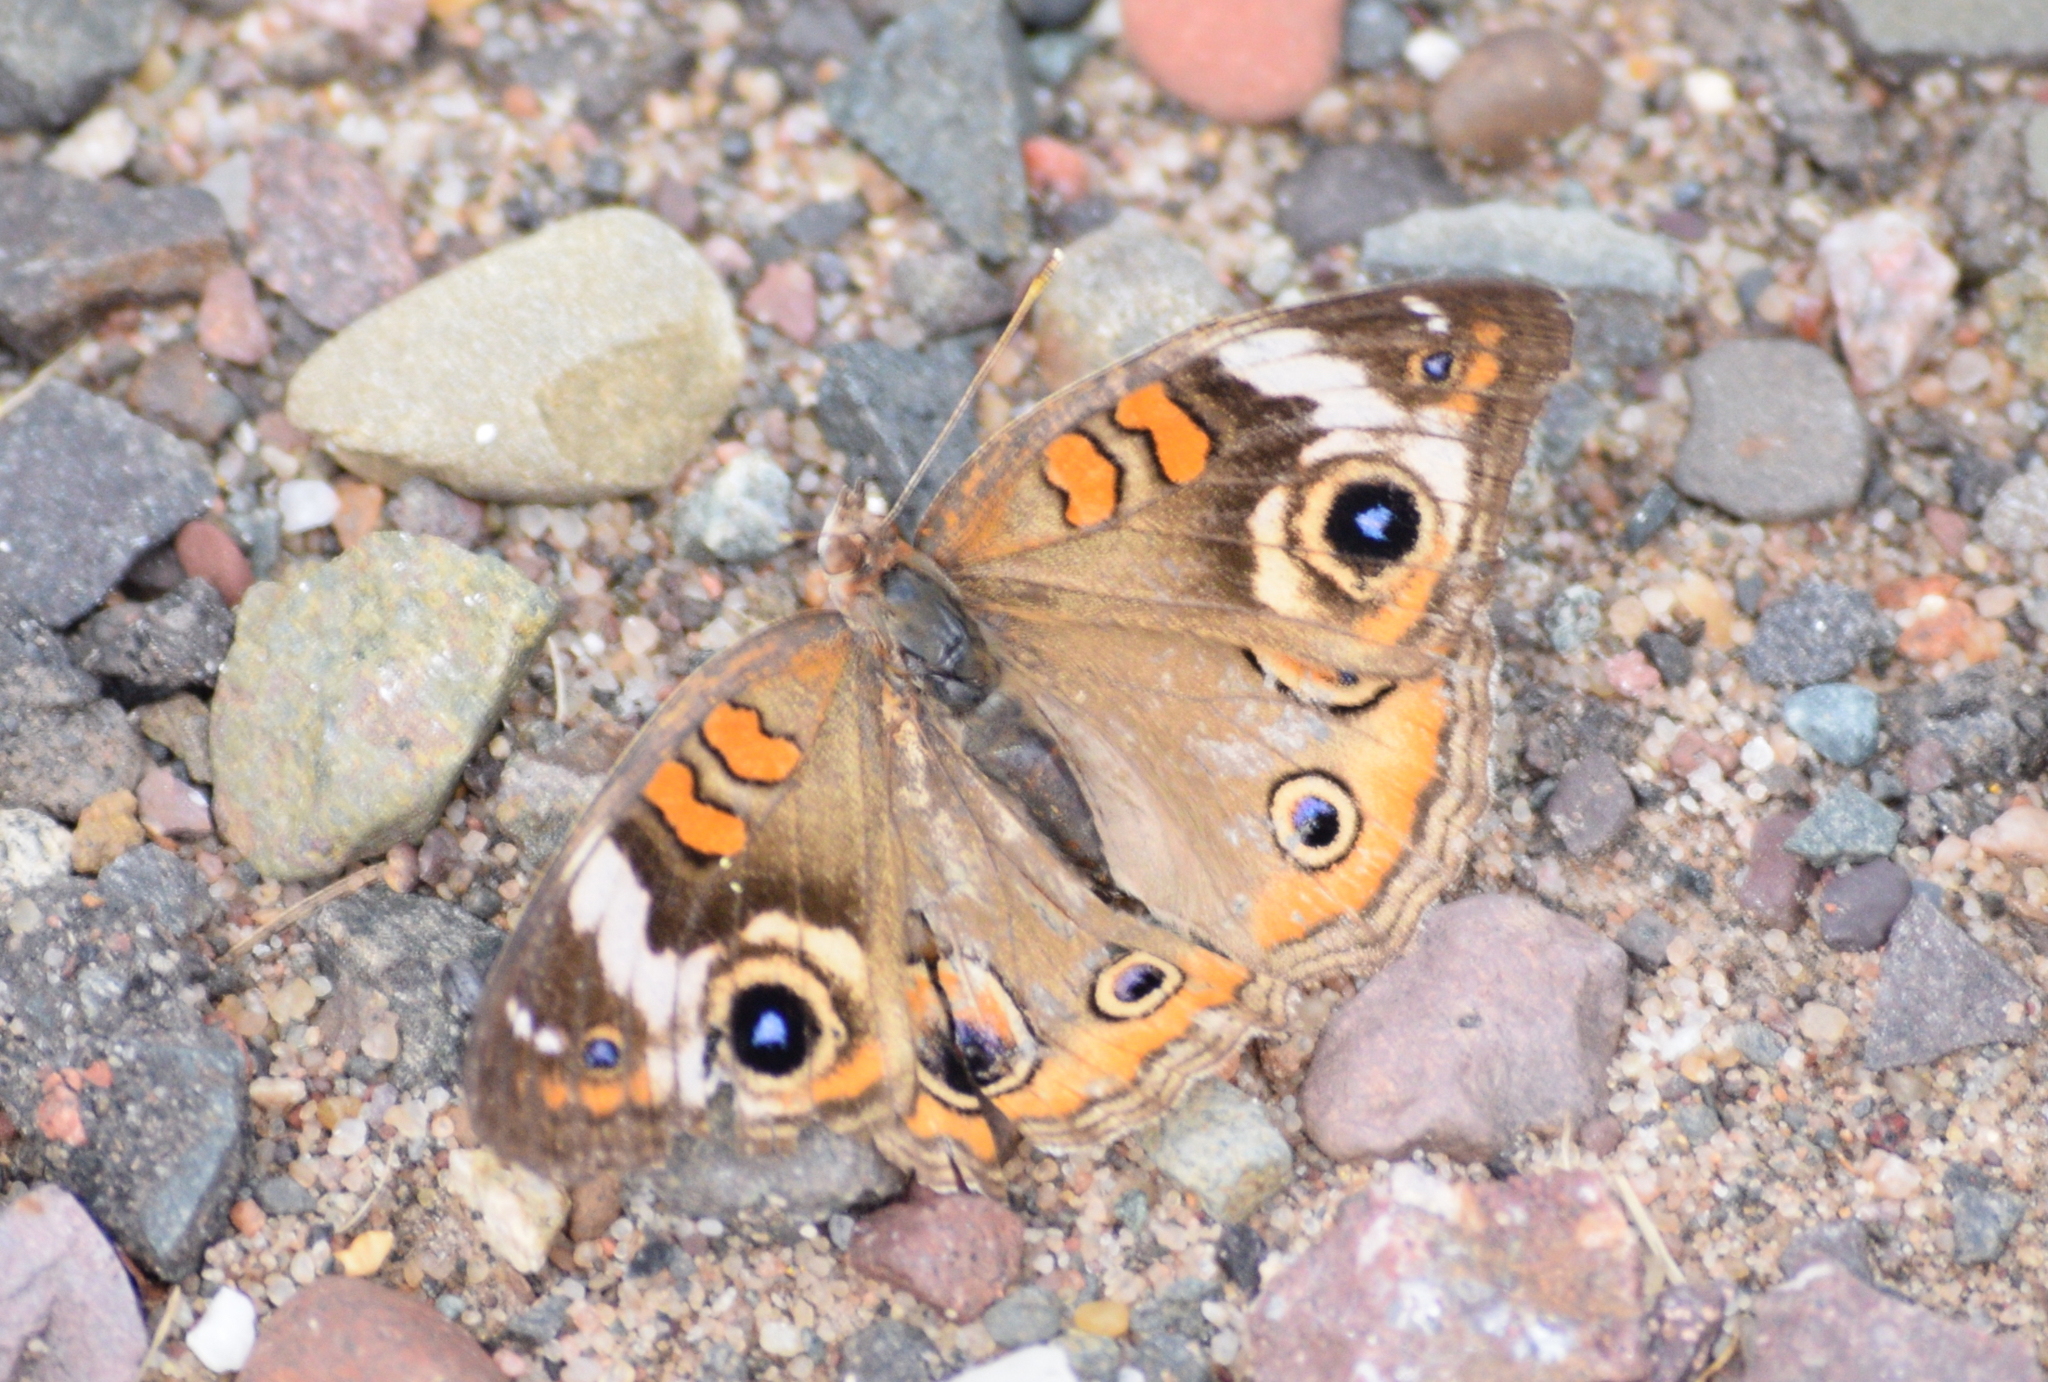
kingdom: Animalia
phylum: Arthropoda
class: Insecta
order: Lepidoptera
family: Nymphalidae
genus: Junonia
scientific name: Junonia coenia
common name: Common buckeye
